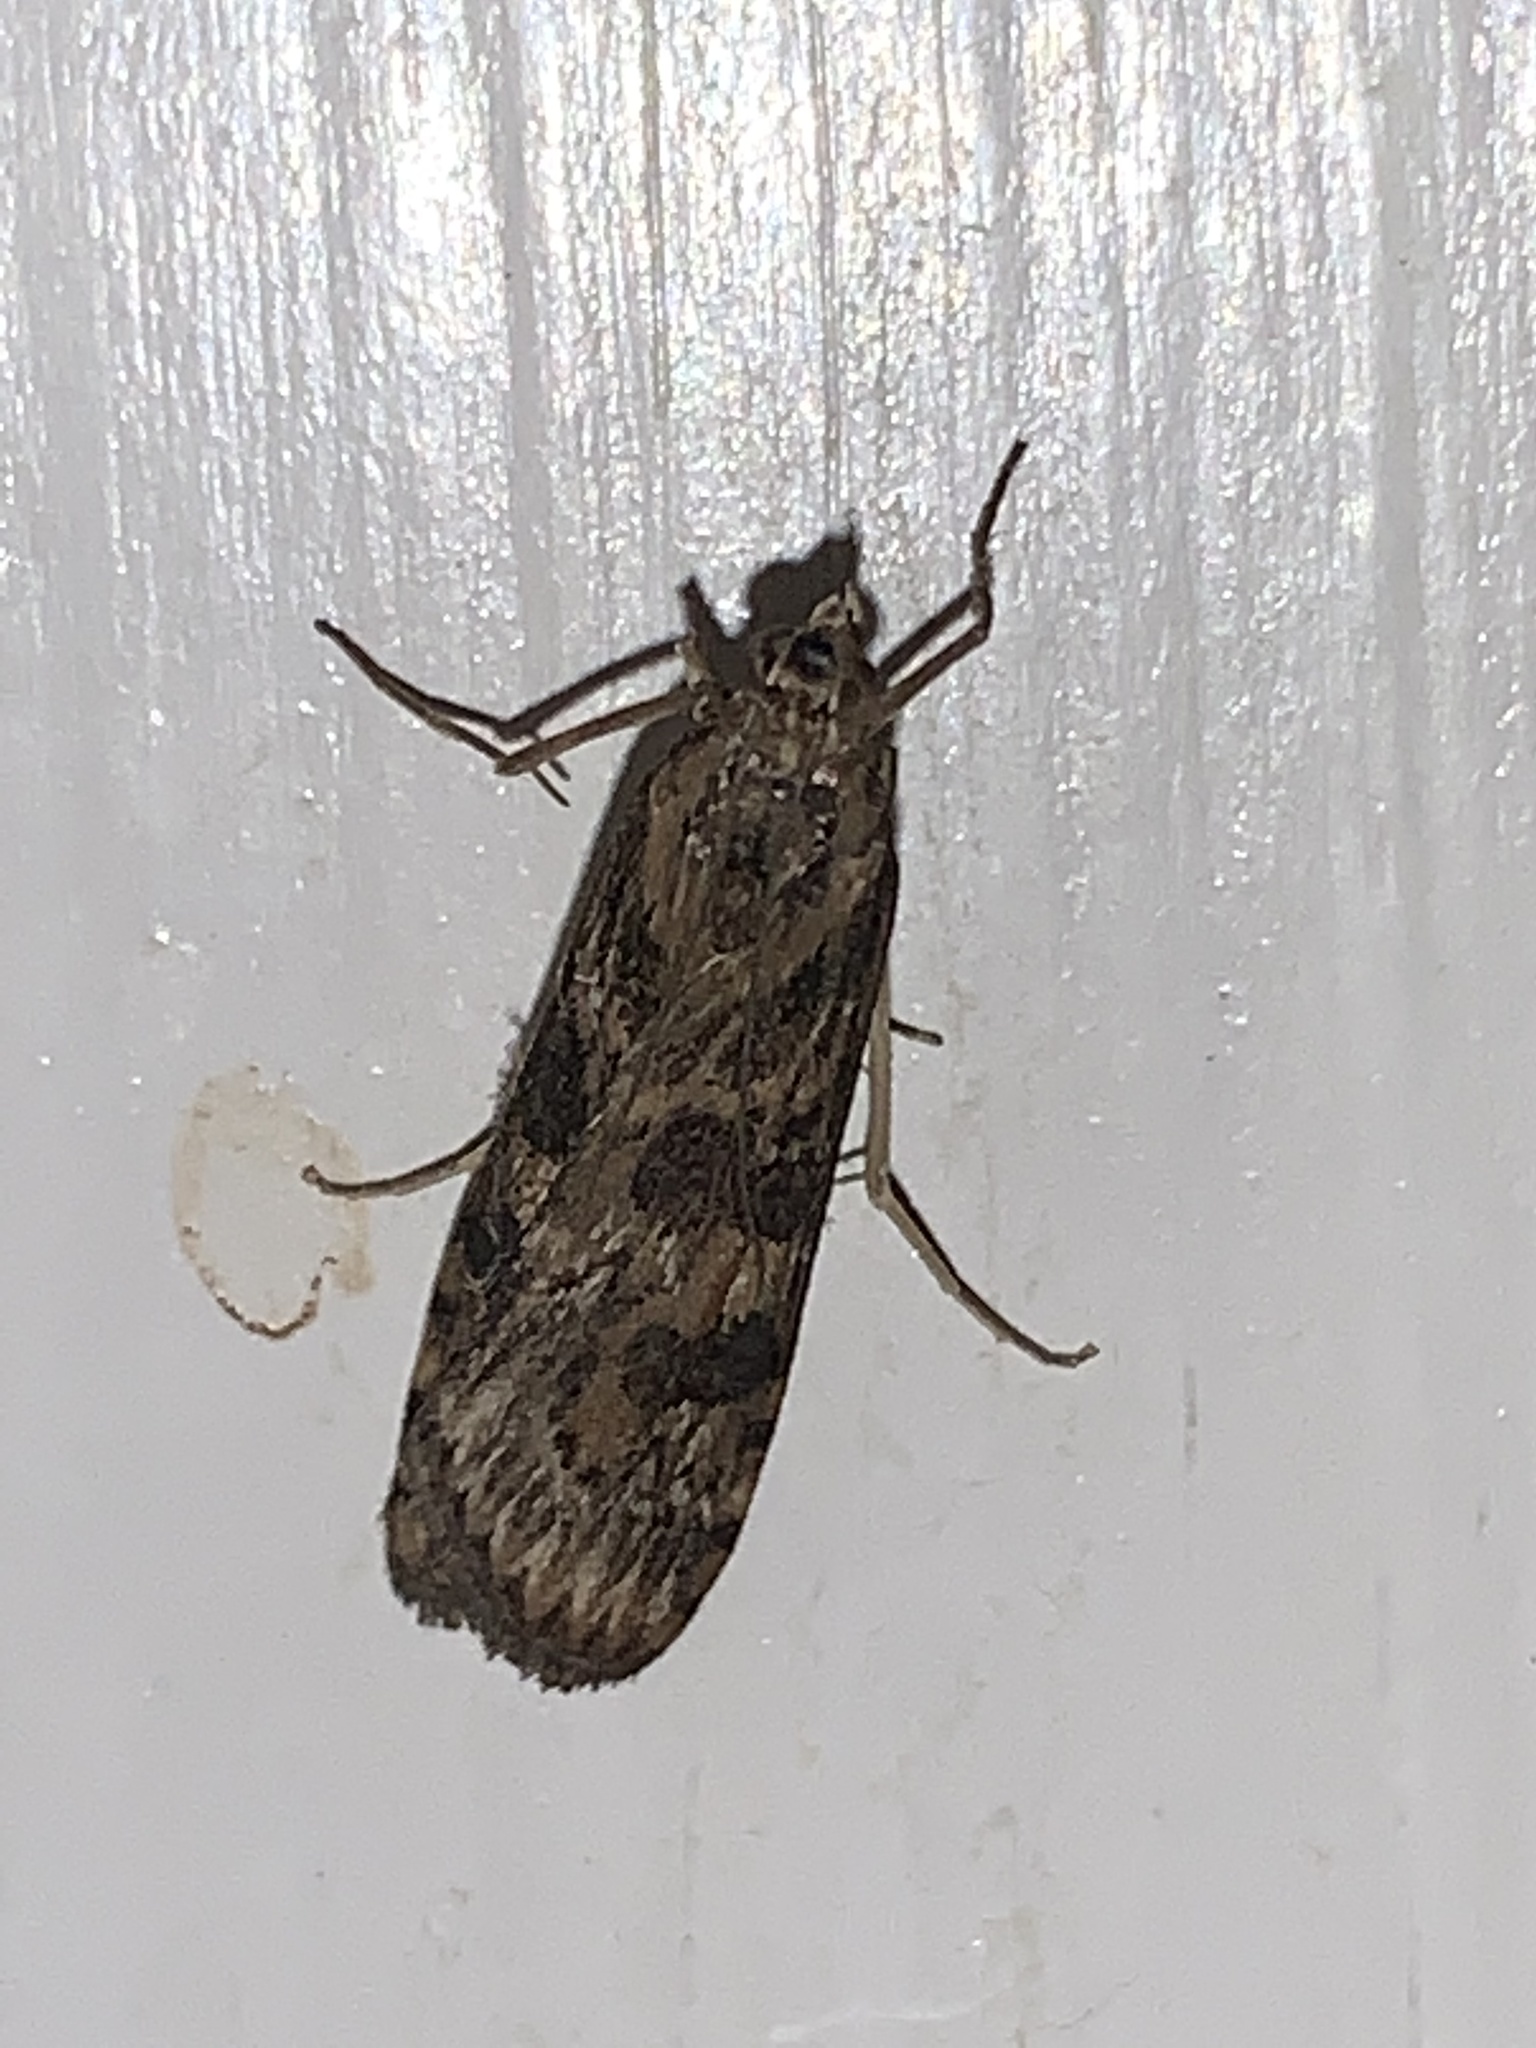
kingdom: Animalia
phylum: Arthropoda
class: Insecta
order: Lepidoptera
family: Crambidae
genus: Nomophila
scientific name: Nomophila nearctica
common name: American rush veneer
